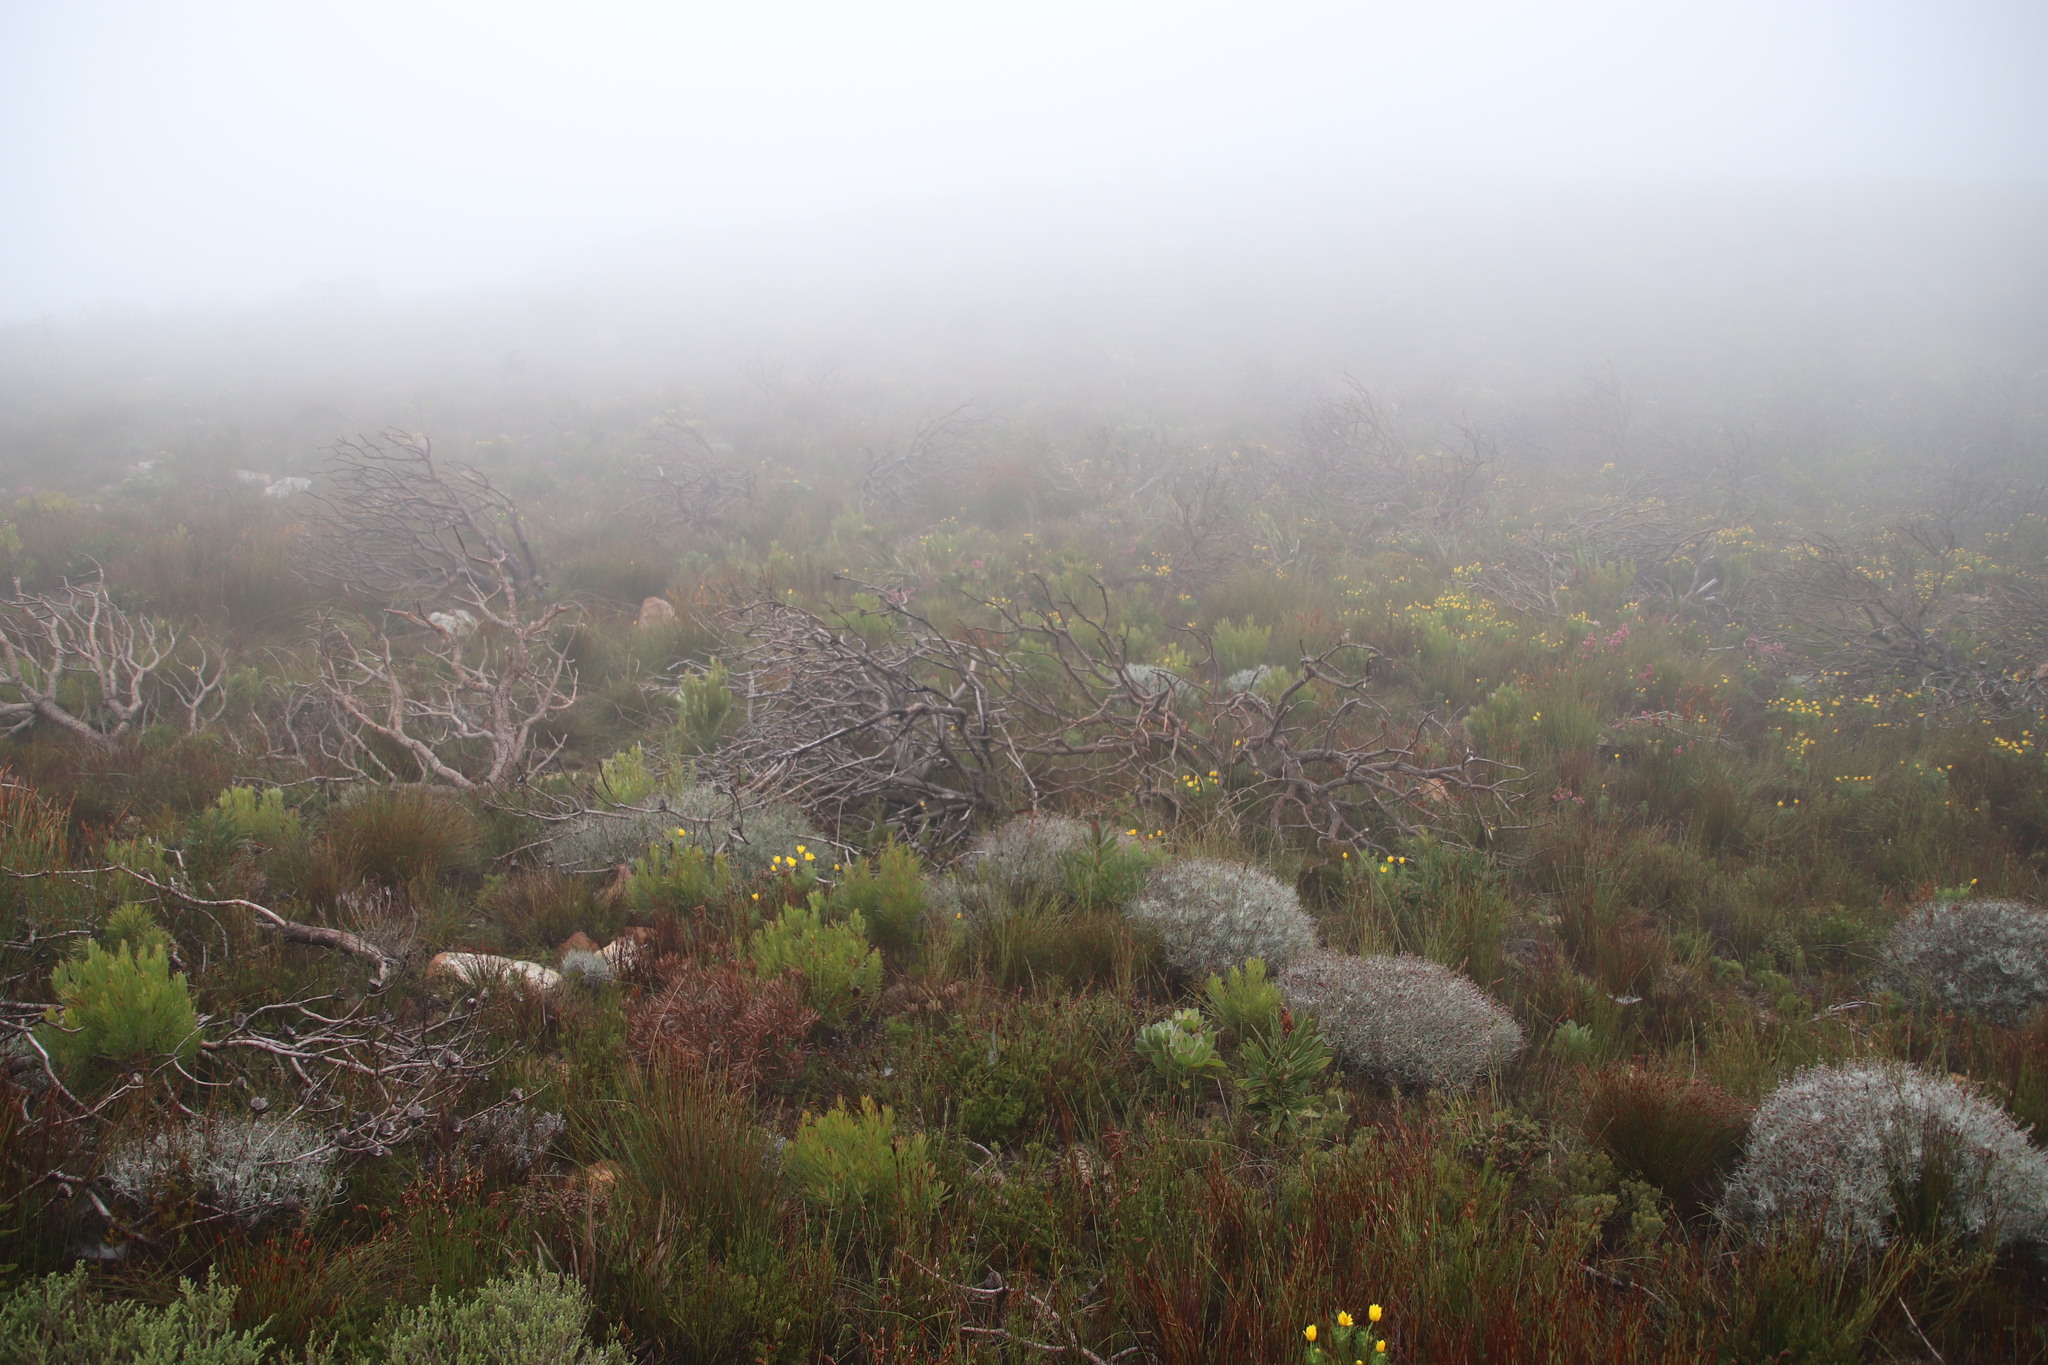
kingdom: Plantae
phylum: Tracheophyta
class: Magnoliopsida
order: Proteales
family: Proteaceae
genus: Leucadendron
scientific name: Leucadendron xanthoconus
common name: Sickle-leaf conebush
